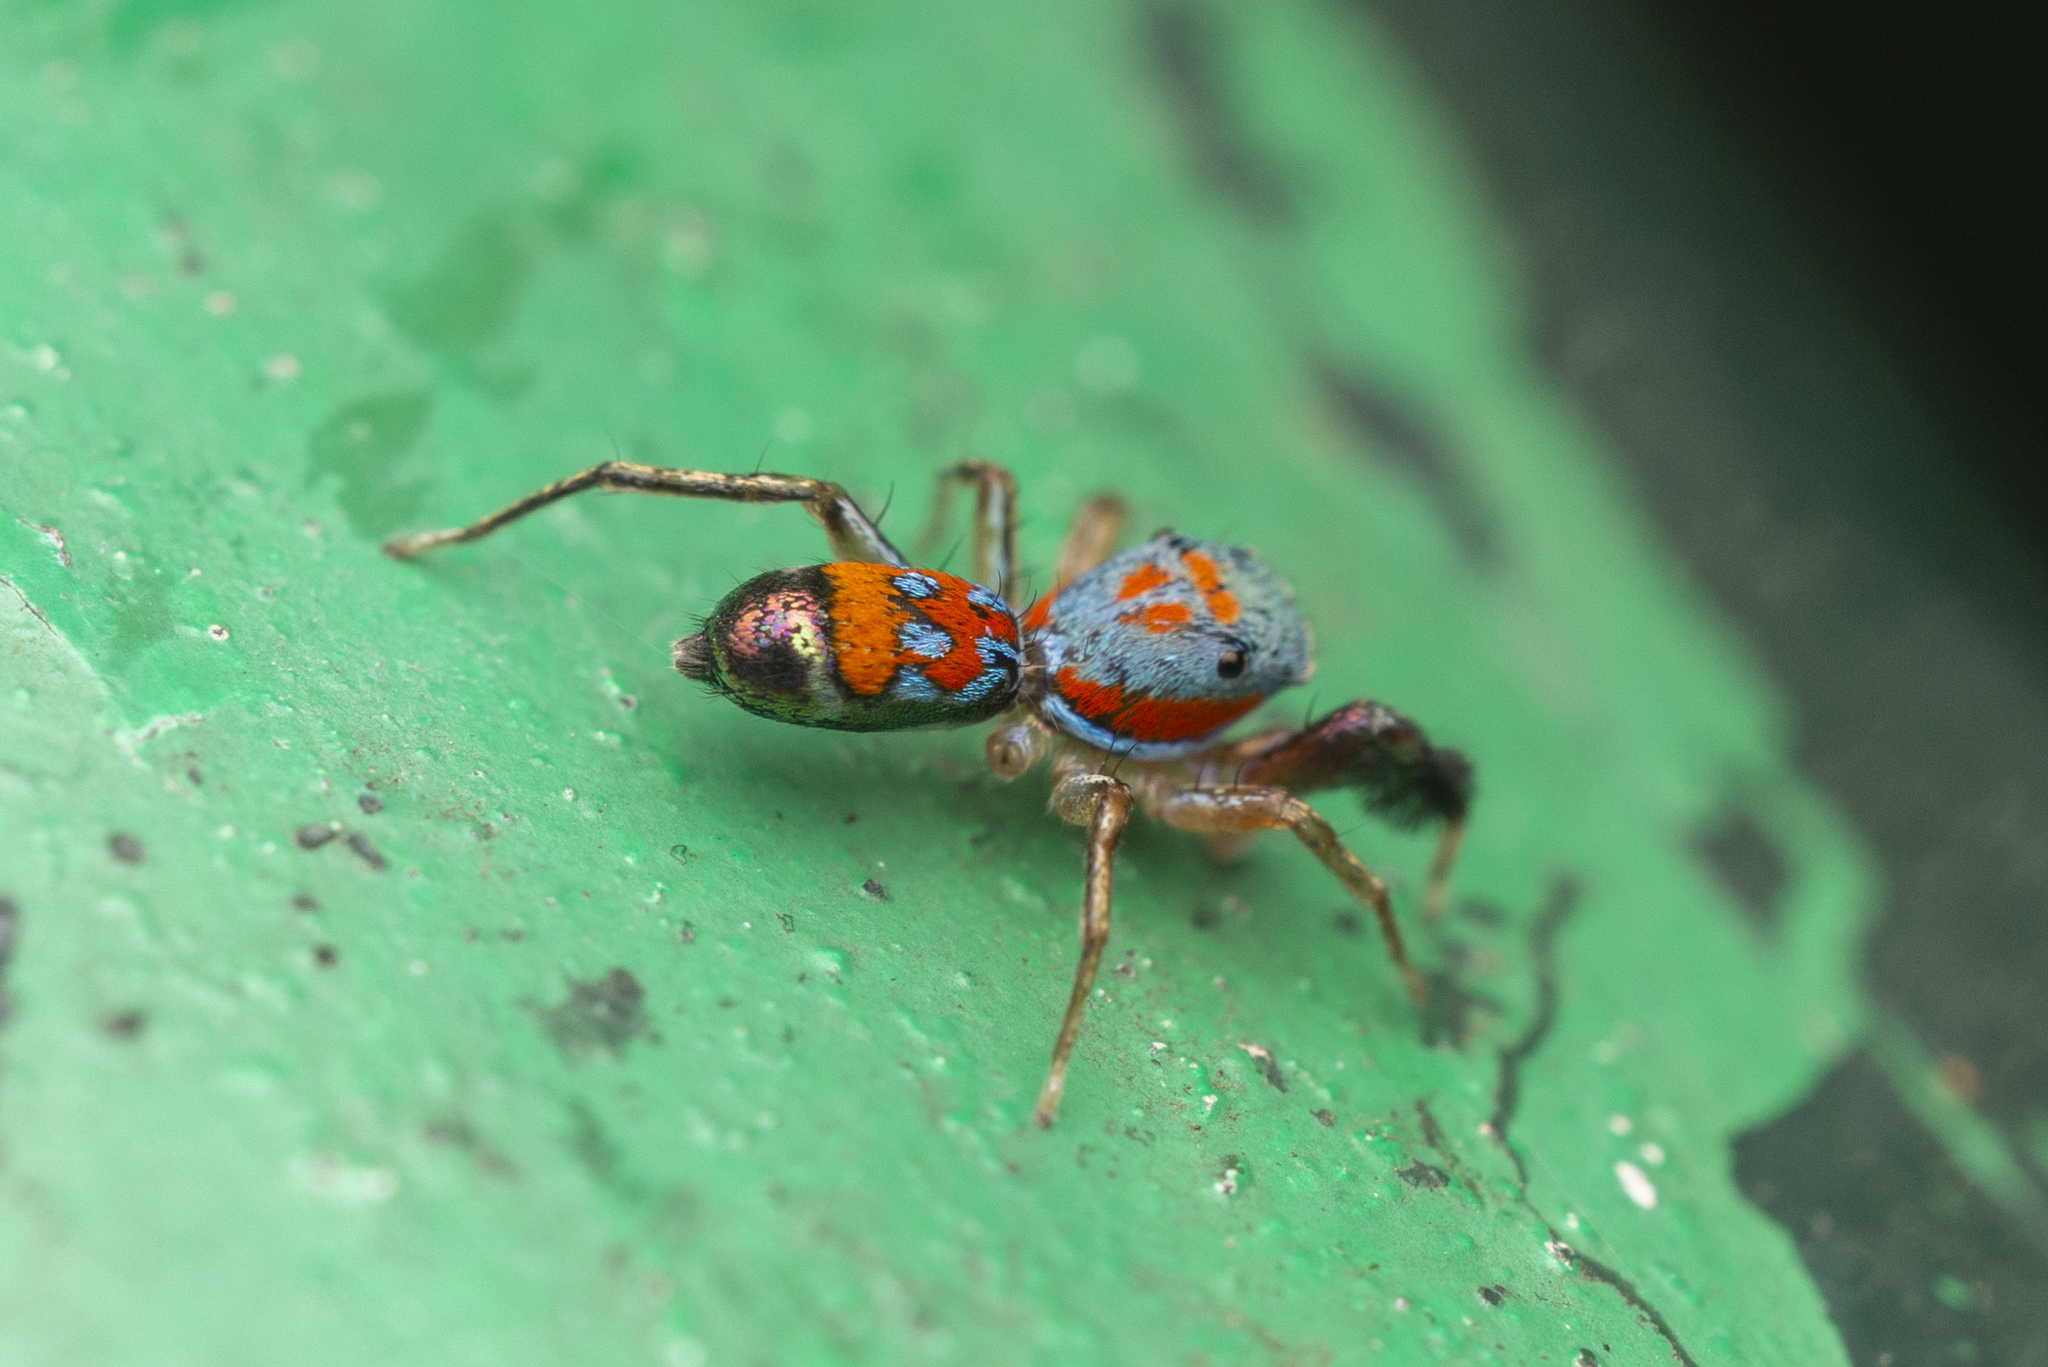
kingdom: Animalia
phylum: Arthropoda
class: Arachnida
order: Araneae
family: Salticidae
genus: Siler
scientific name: Siler collingwoodi
